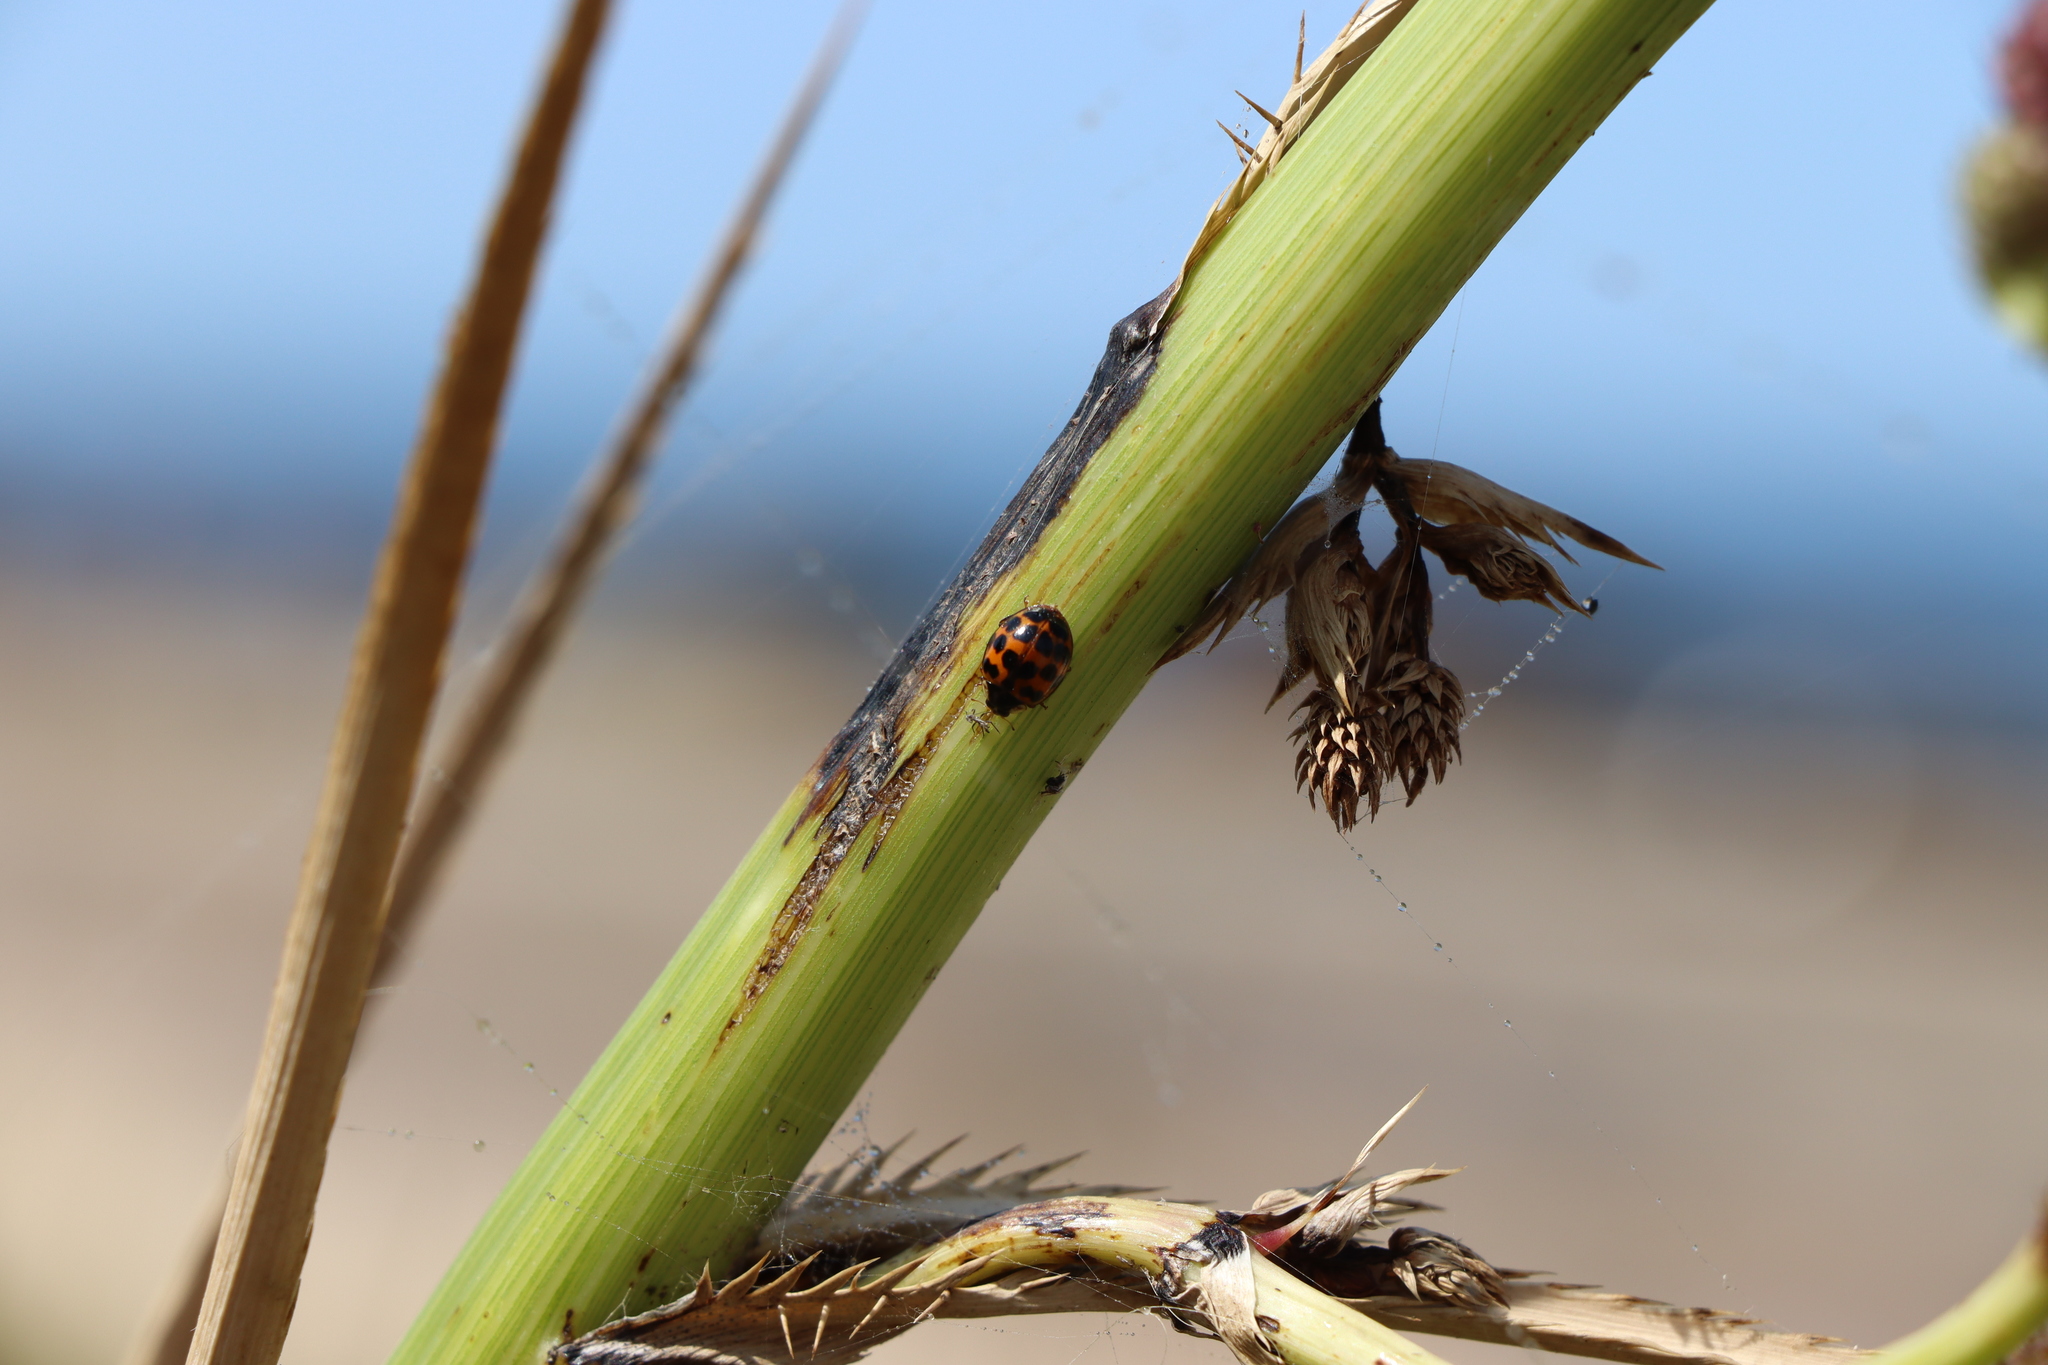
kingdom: Animalia
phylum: Arthropoda
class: Insecta
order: Coleoptera
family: Coccinellidae
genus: Harmonia
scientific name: Harmonia axyridis
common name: Harlequin ladybird
